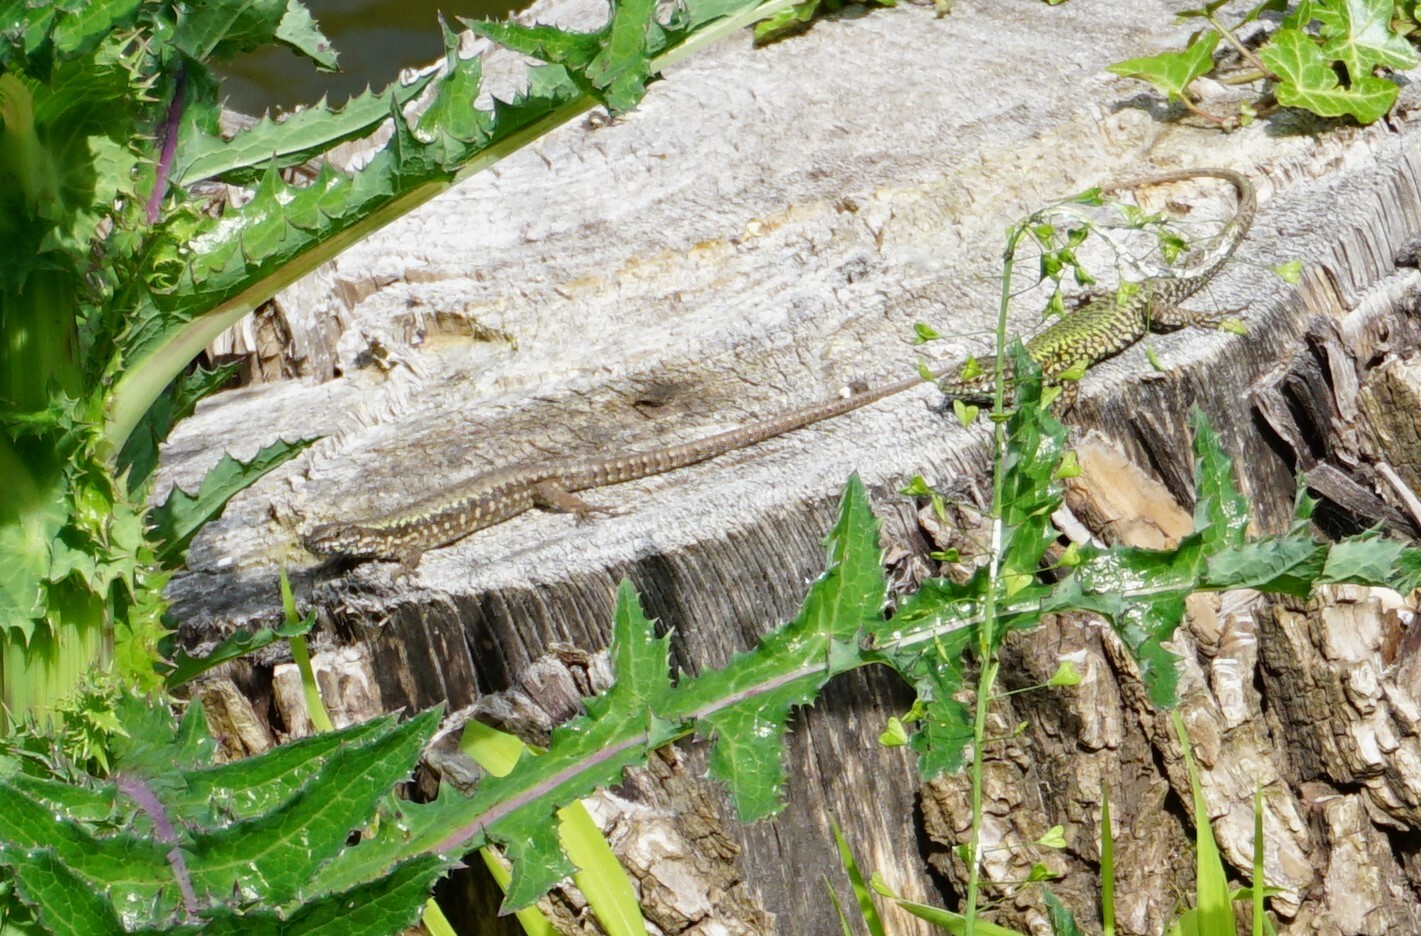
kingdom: Animalia
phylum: Chordata
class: Squamata
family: Lacertidae
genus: Podarcis
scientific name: Podarcis muralis
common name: Common wall lizard
